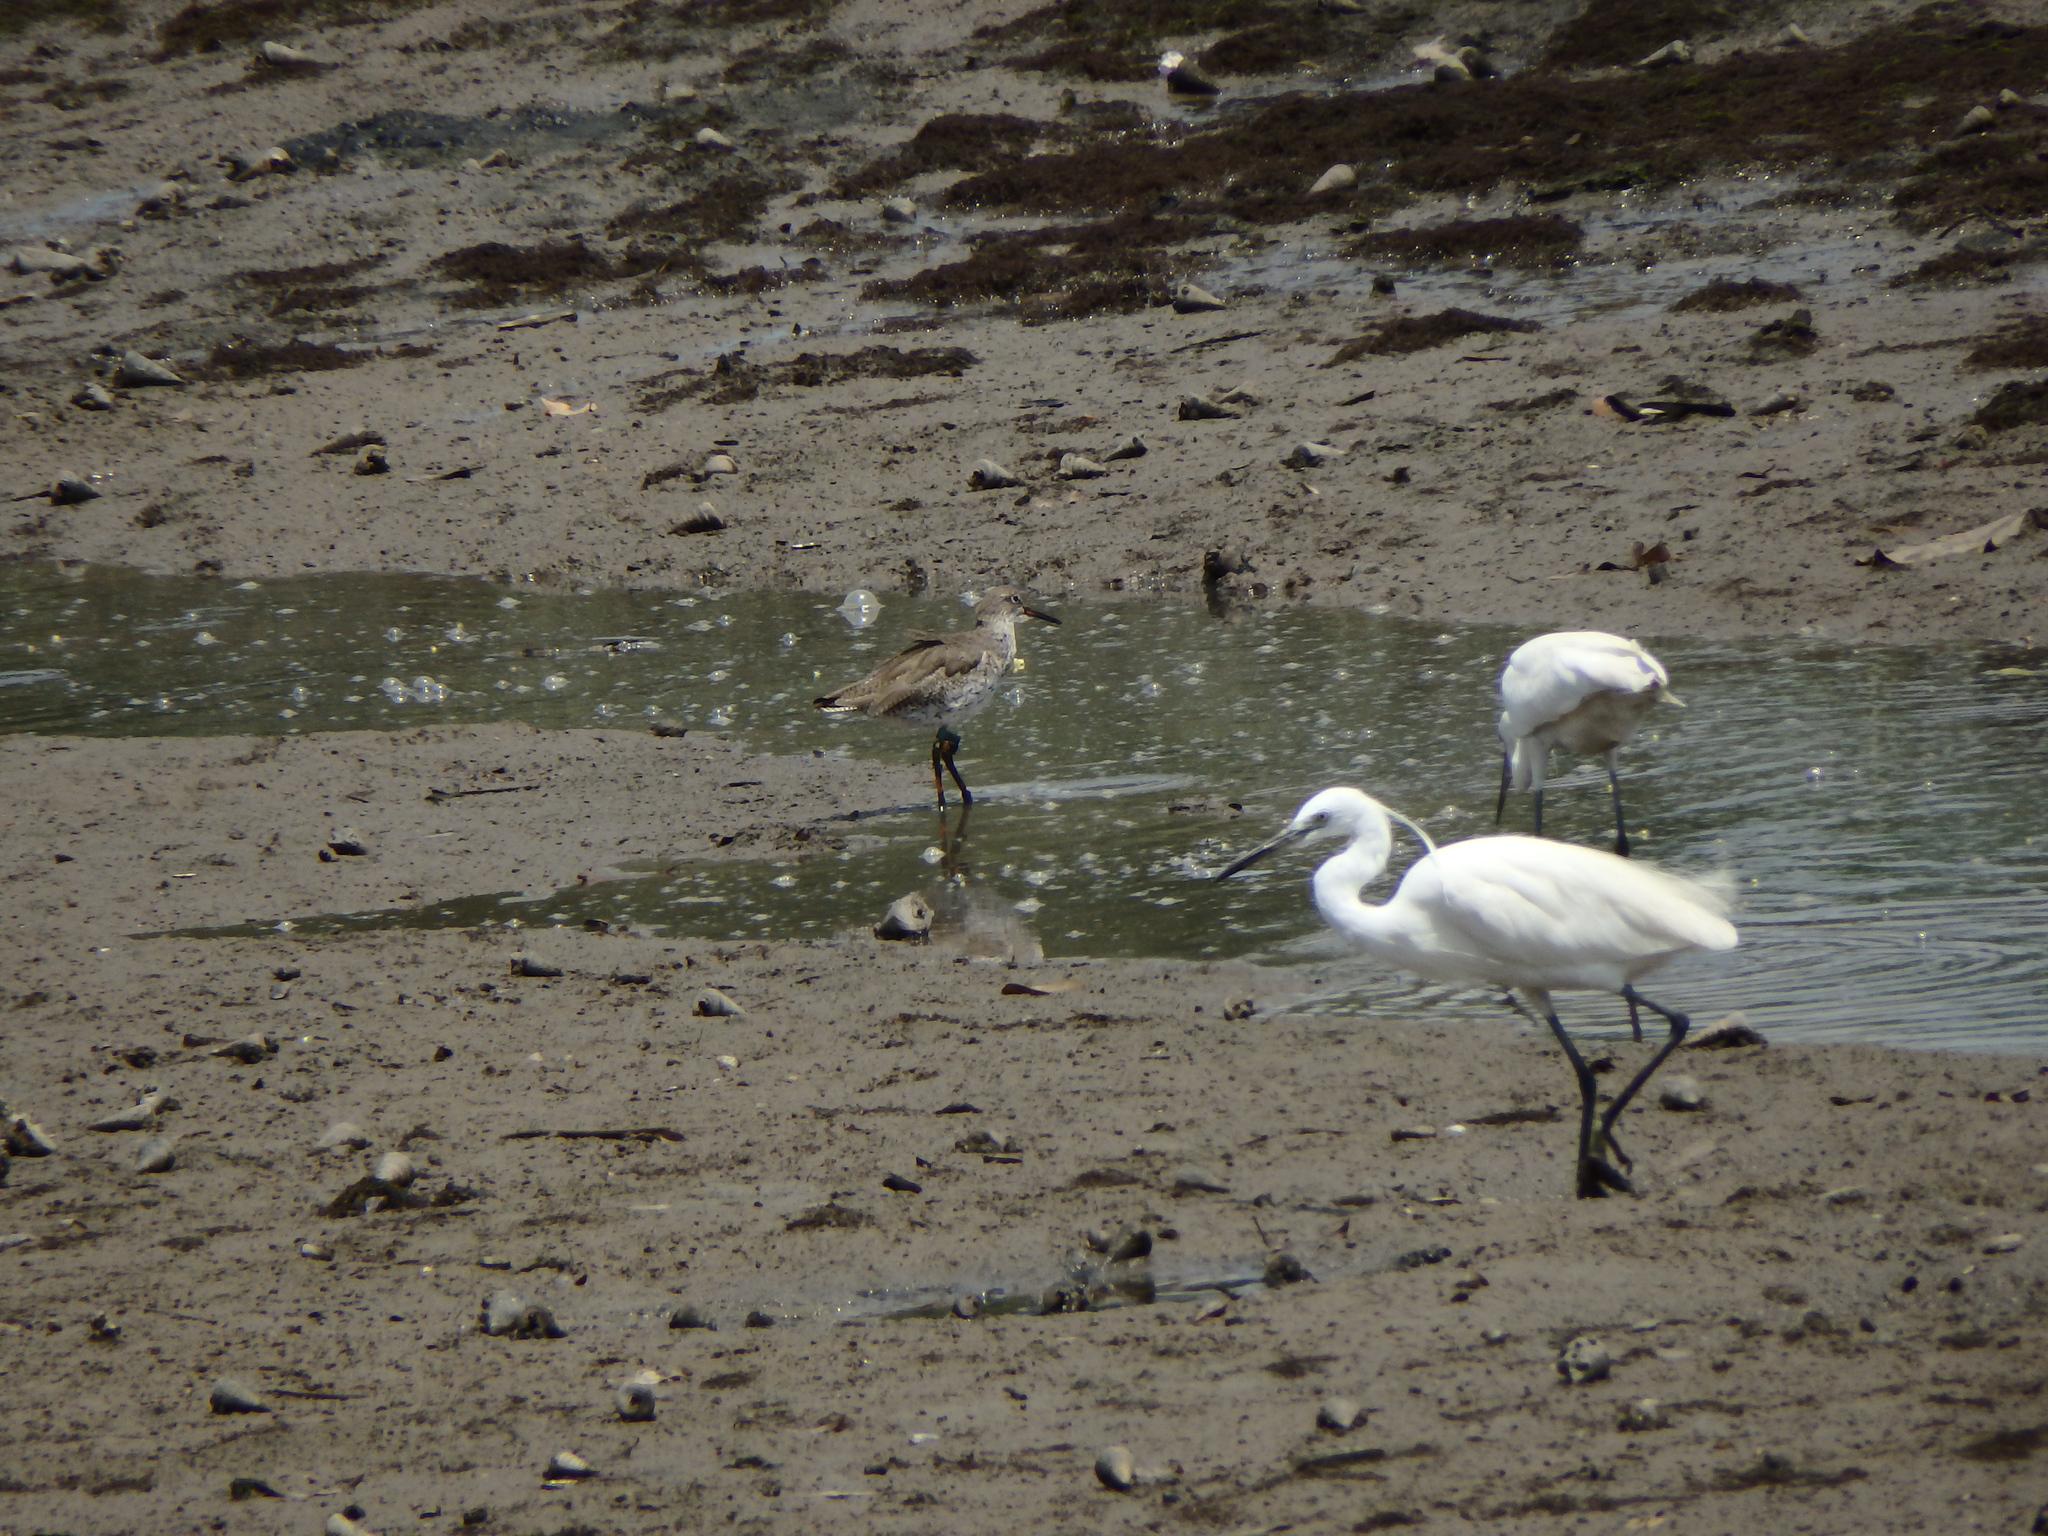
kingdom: Animalia
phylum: Chordata
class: Aves
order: Charadriiformes
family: Scolopacidae
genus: Tringa
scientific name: Tringa totanus
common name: Common redshank
